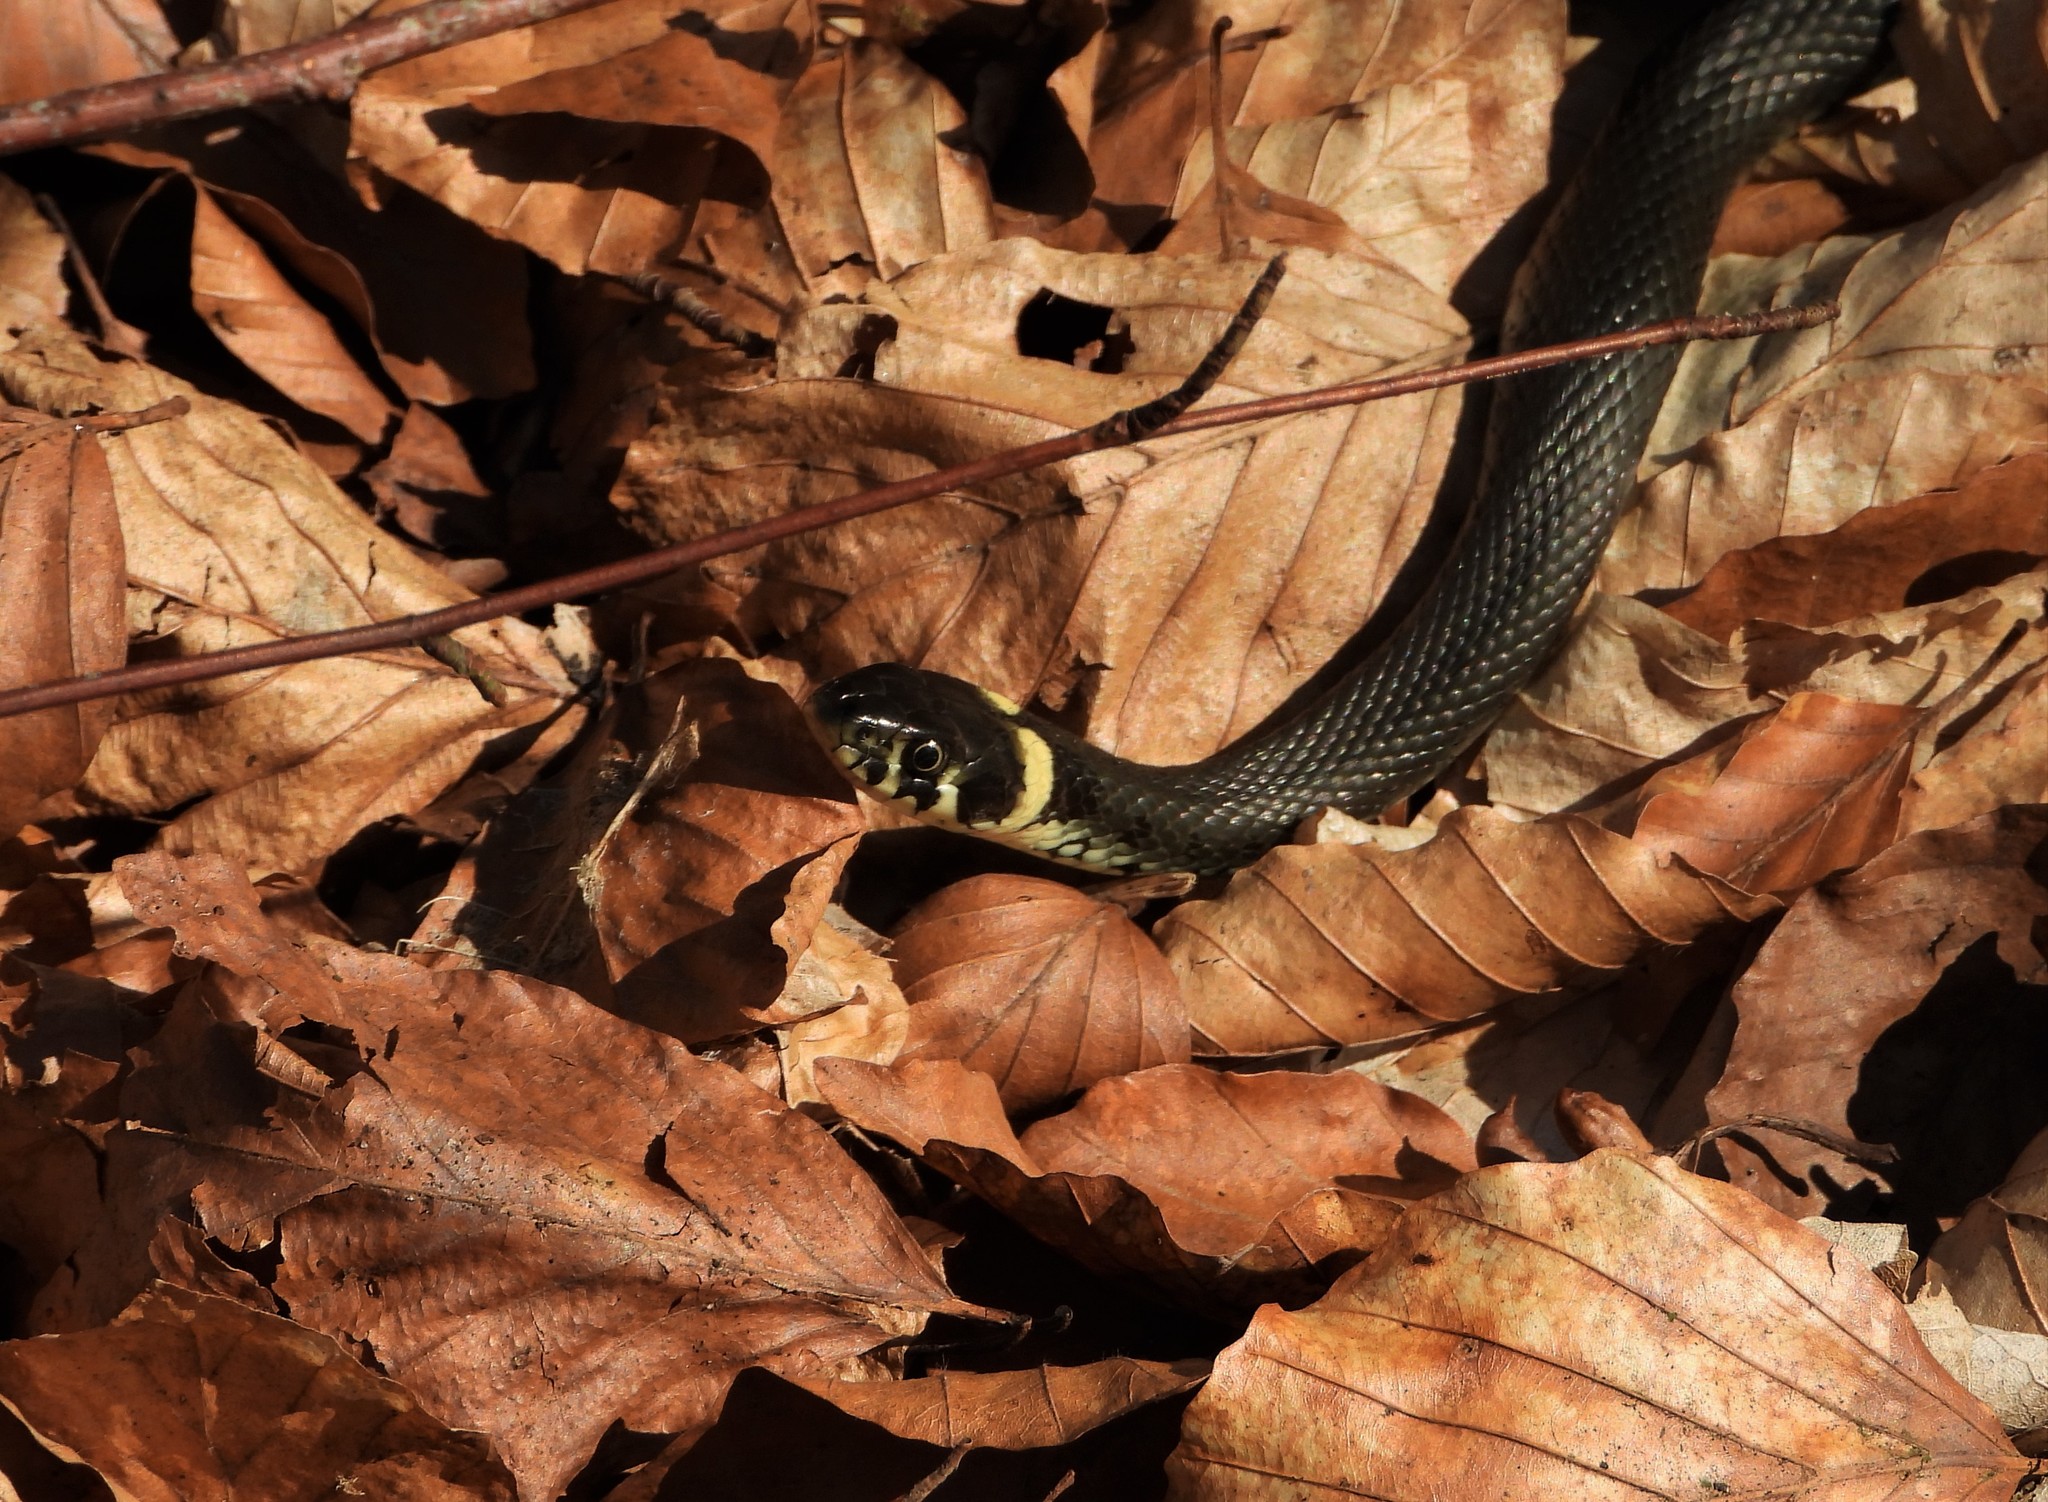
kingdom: Animalia
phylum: Chordata
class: Squamata
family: Colubridae
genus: Natrix
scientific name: Natrix natrix
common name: Grass snake
